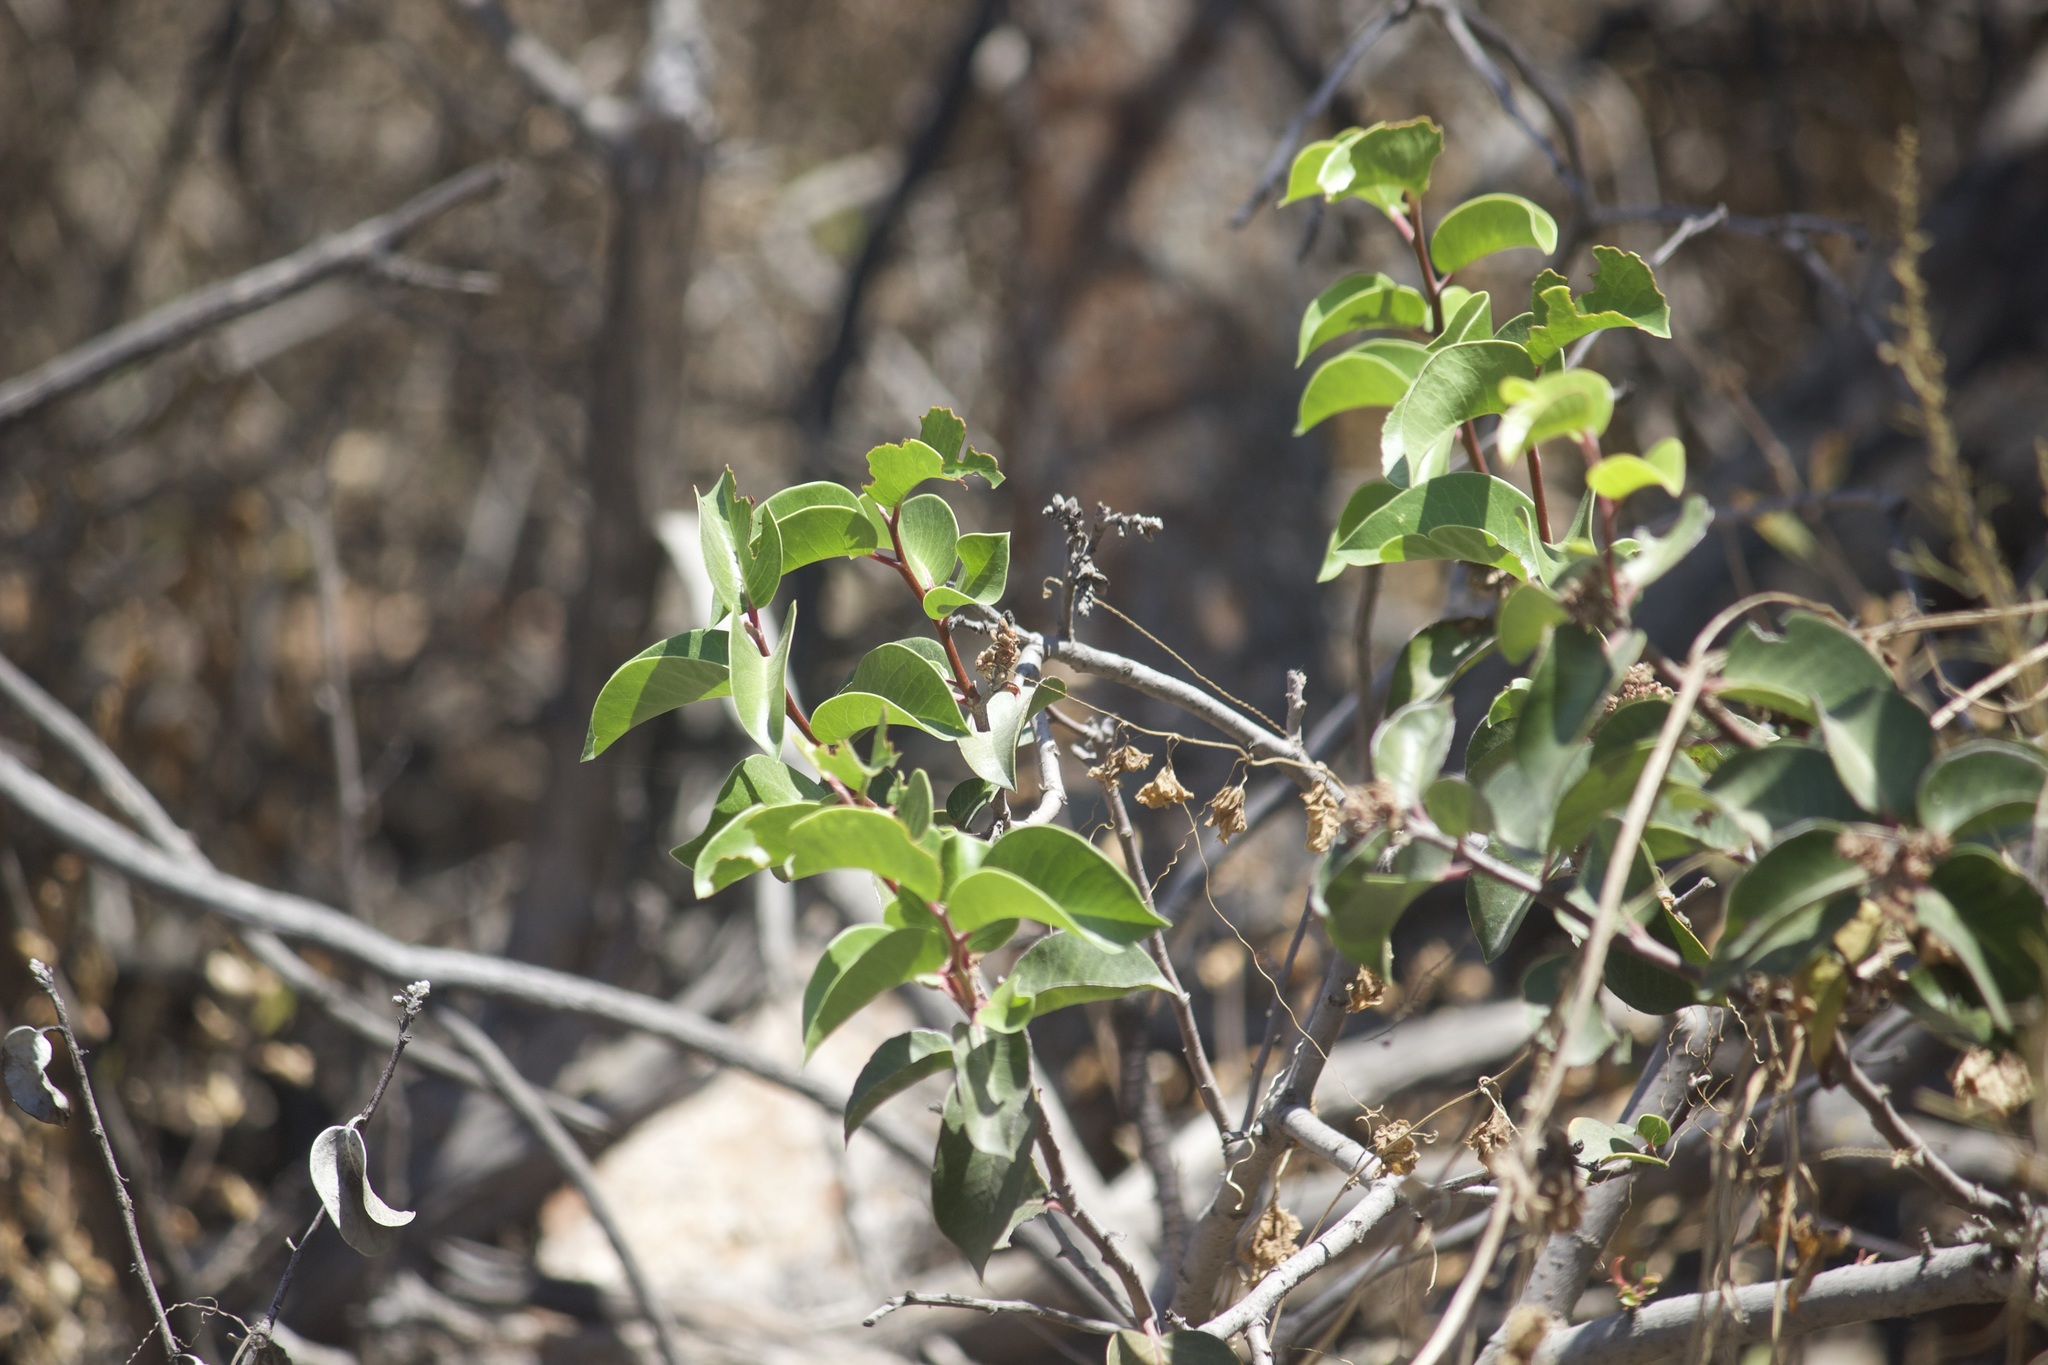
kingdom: Plantae
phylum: Tracheophyta
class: Magnoliopsida
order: Sapindales
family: Anacardiaceae
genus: Rhus
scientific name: Rhus ovata
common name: Sugar sumac
